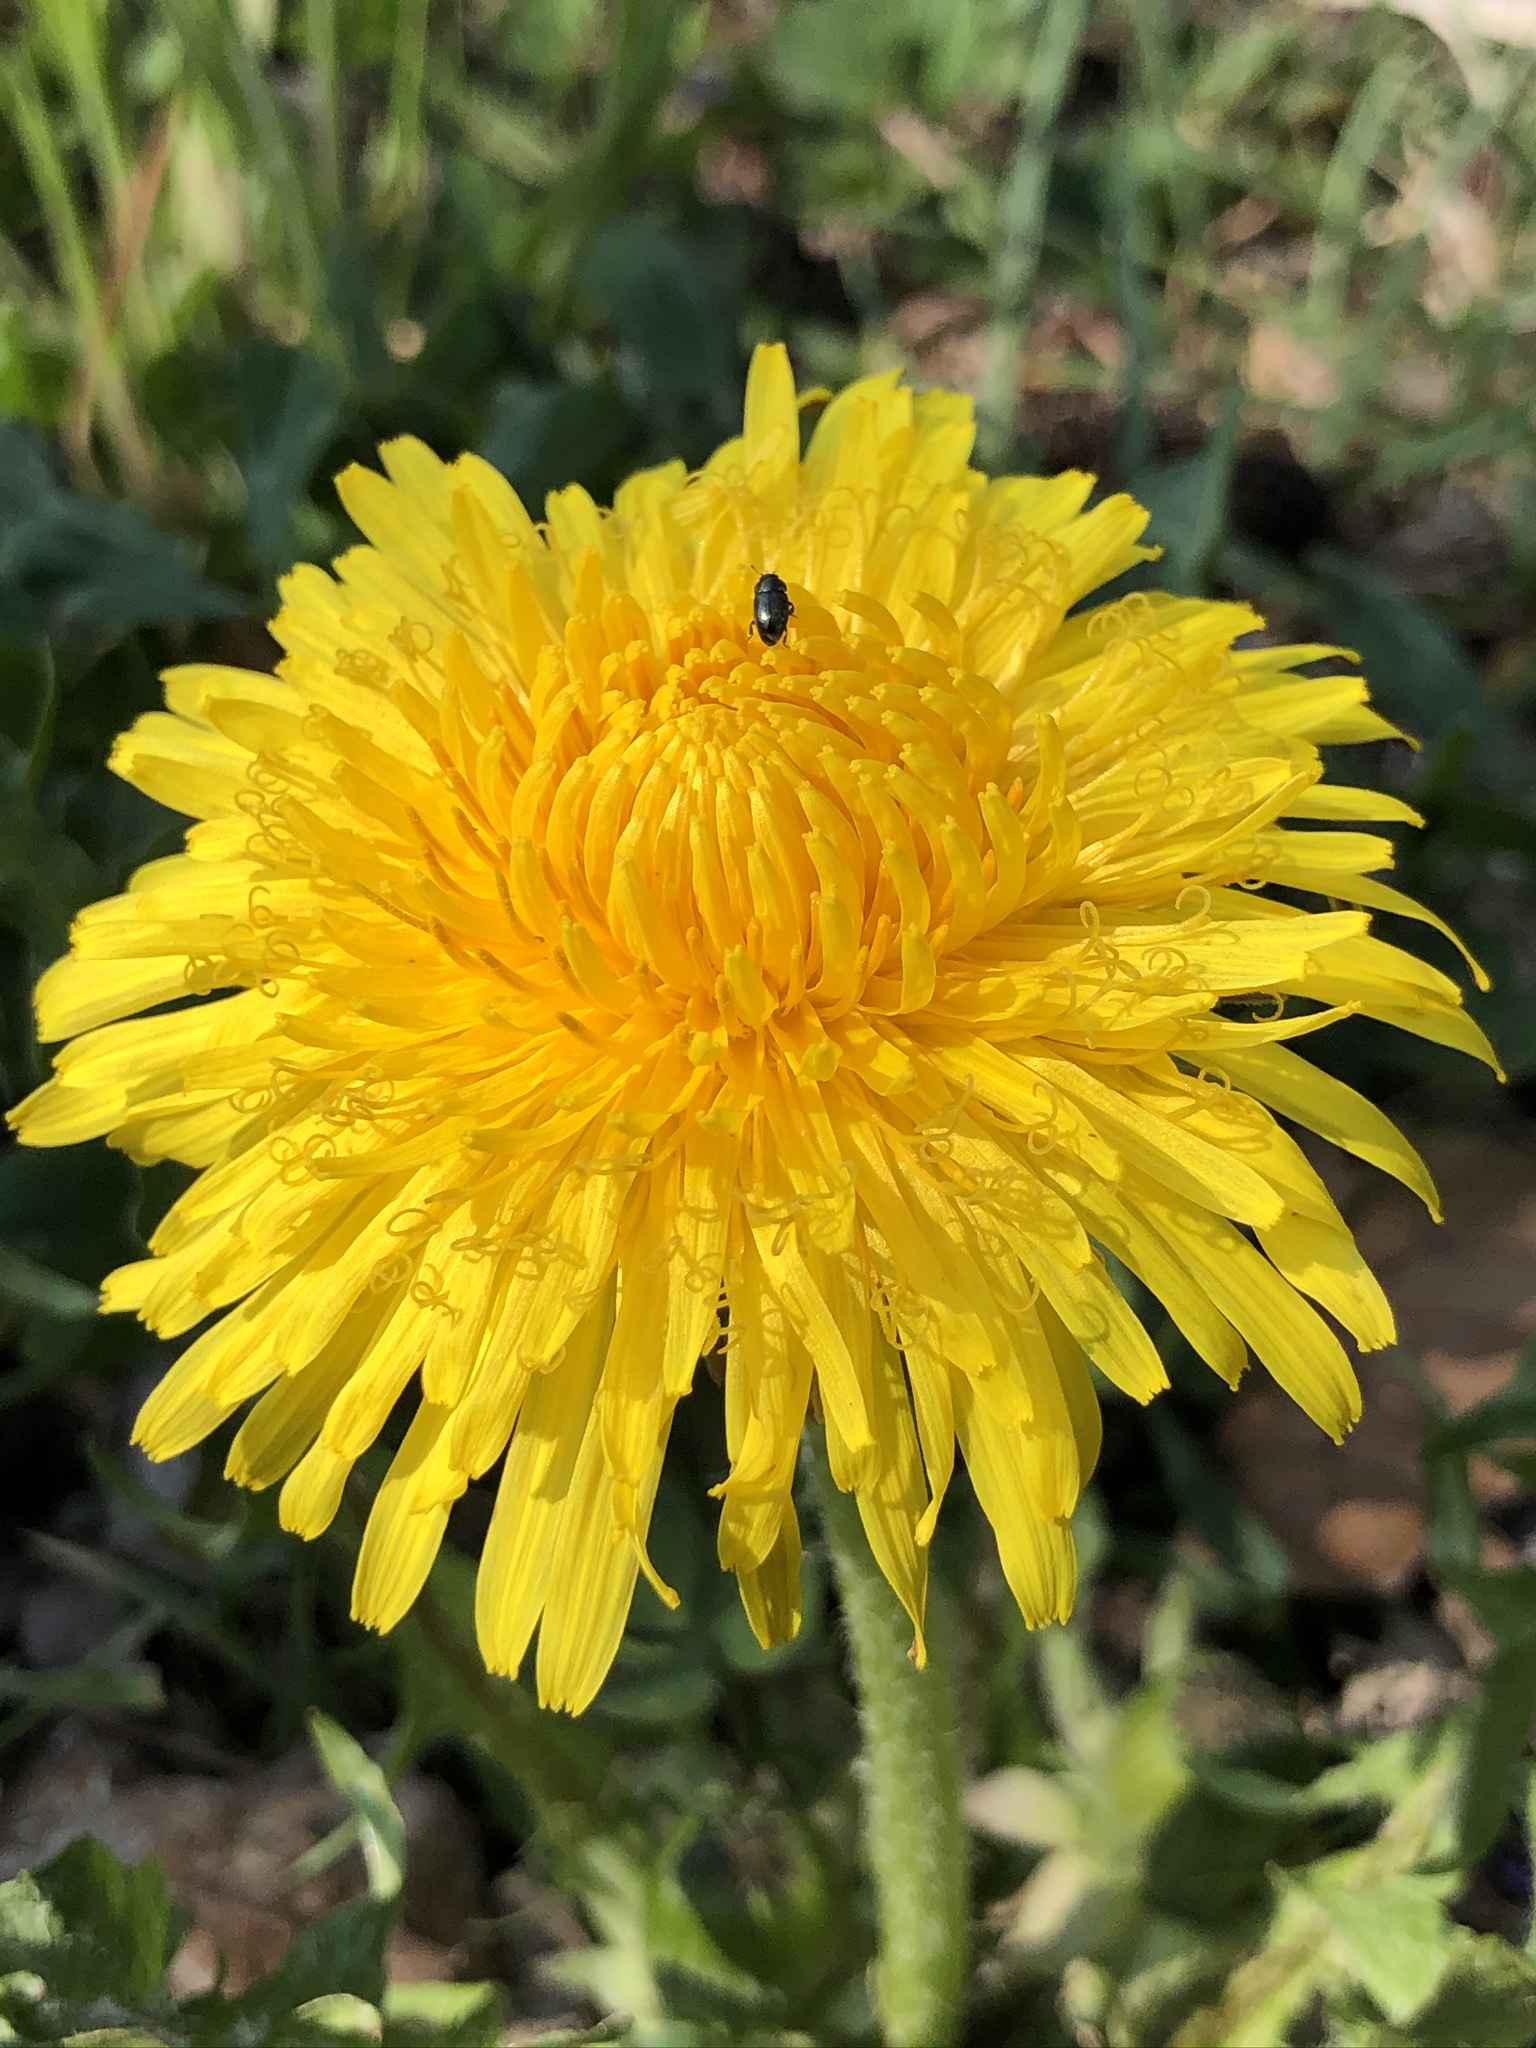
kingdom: Plantae
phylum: Tracheophyta
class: Magnoliopsida
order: Asterales
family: Asteraceae
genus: Taraxacum
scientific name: Taraxacum officinale
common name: Common dandelion
